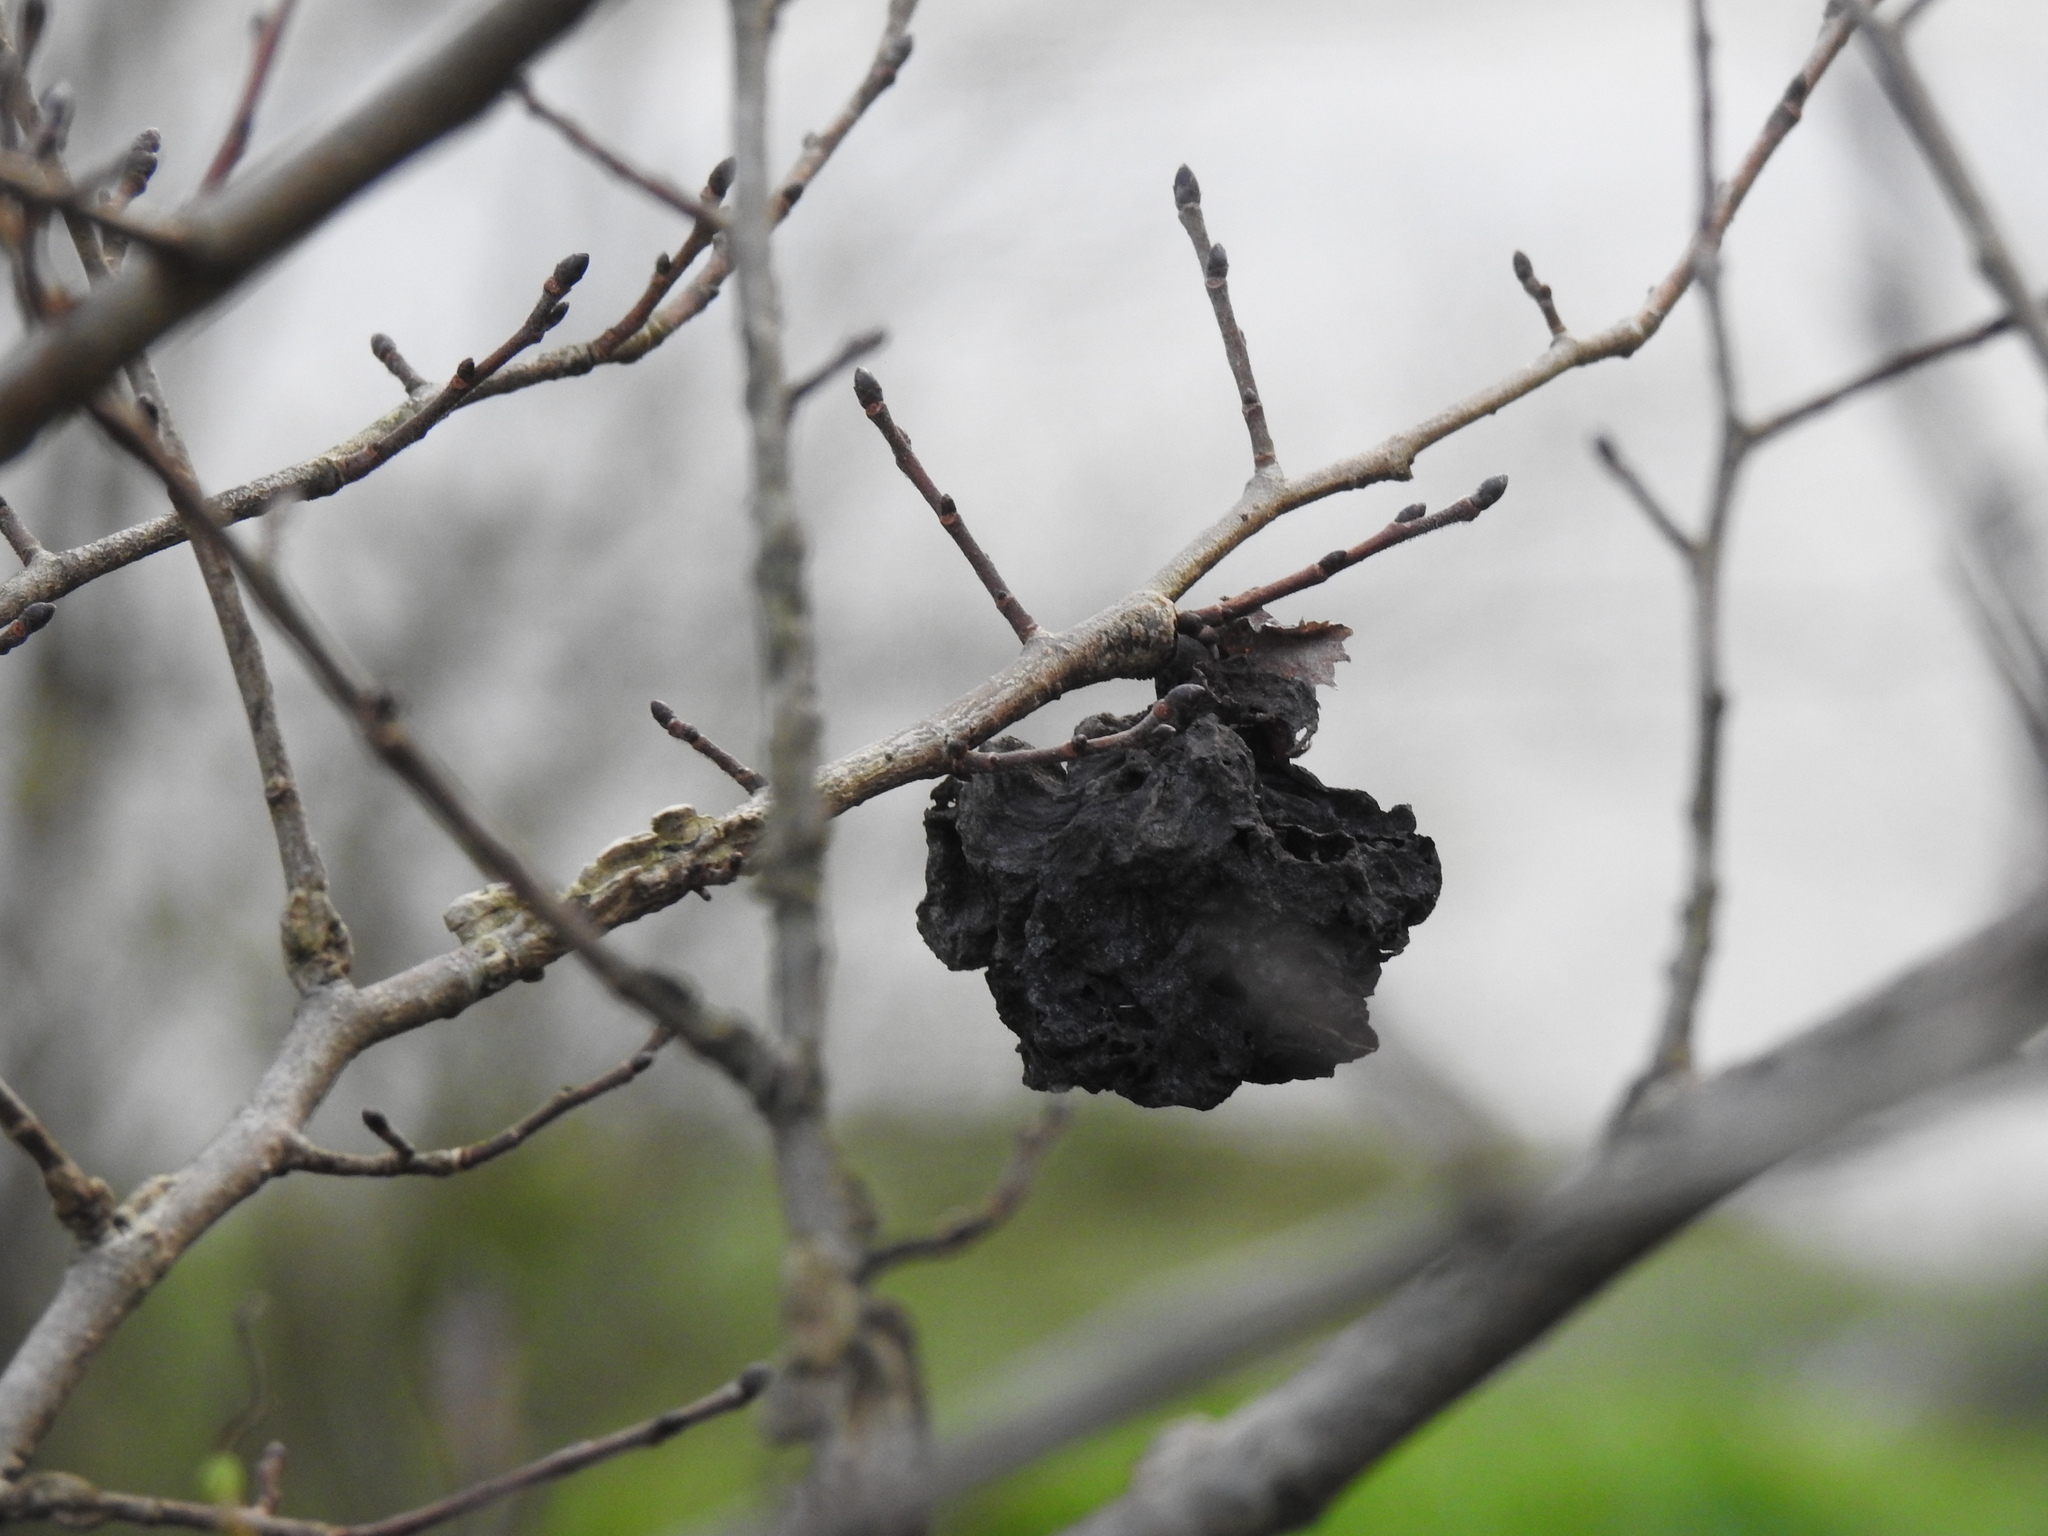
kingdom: Animalia
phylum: Arthropoda
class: Insecta
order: Hemiptera
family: Aphididae
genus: Eriosoma
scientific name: Eriosoma lanuginosum
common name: Aphid
